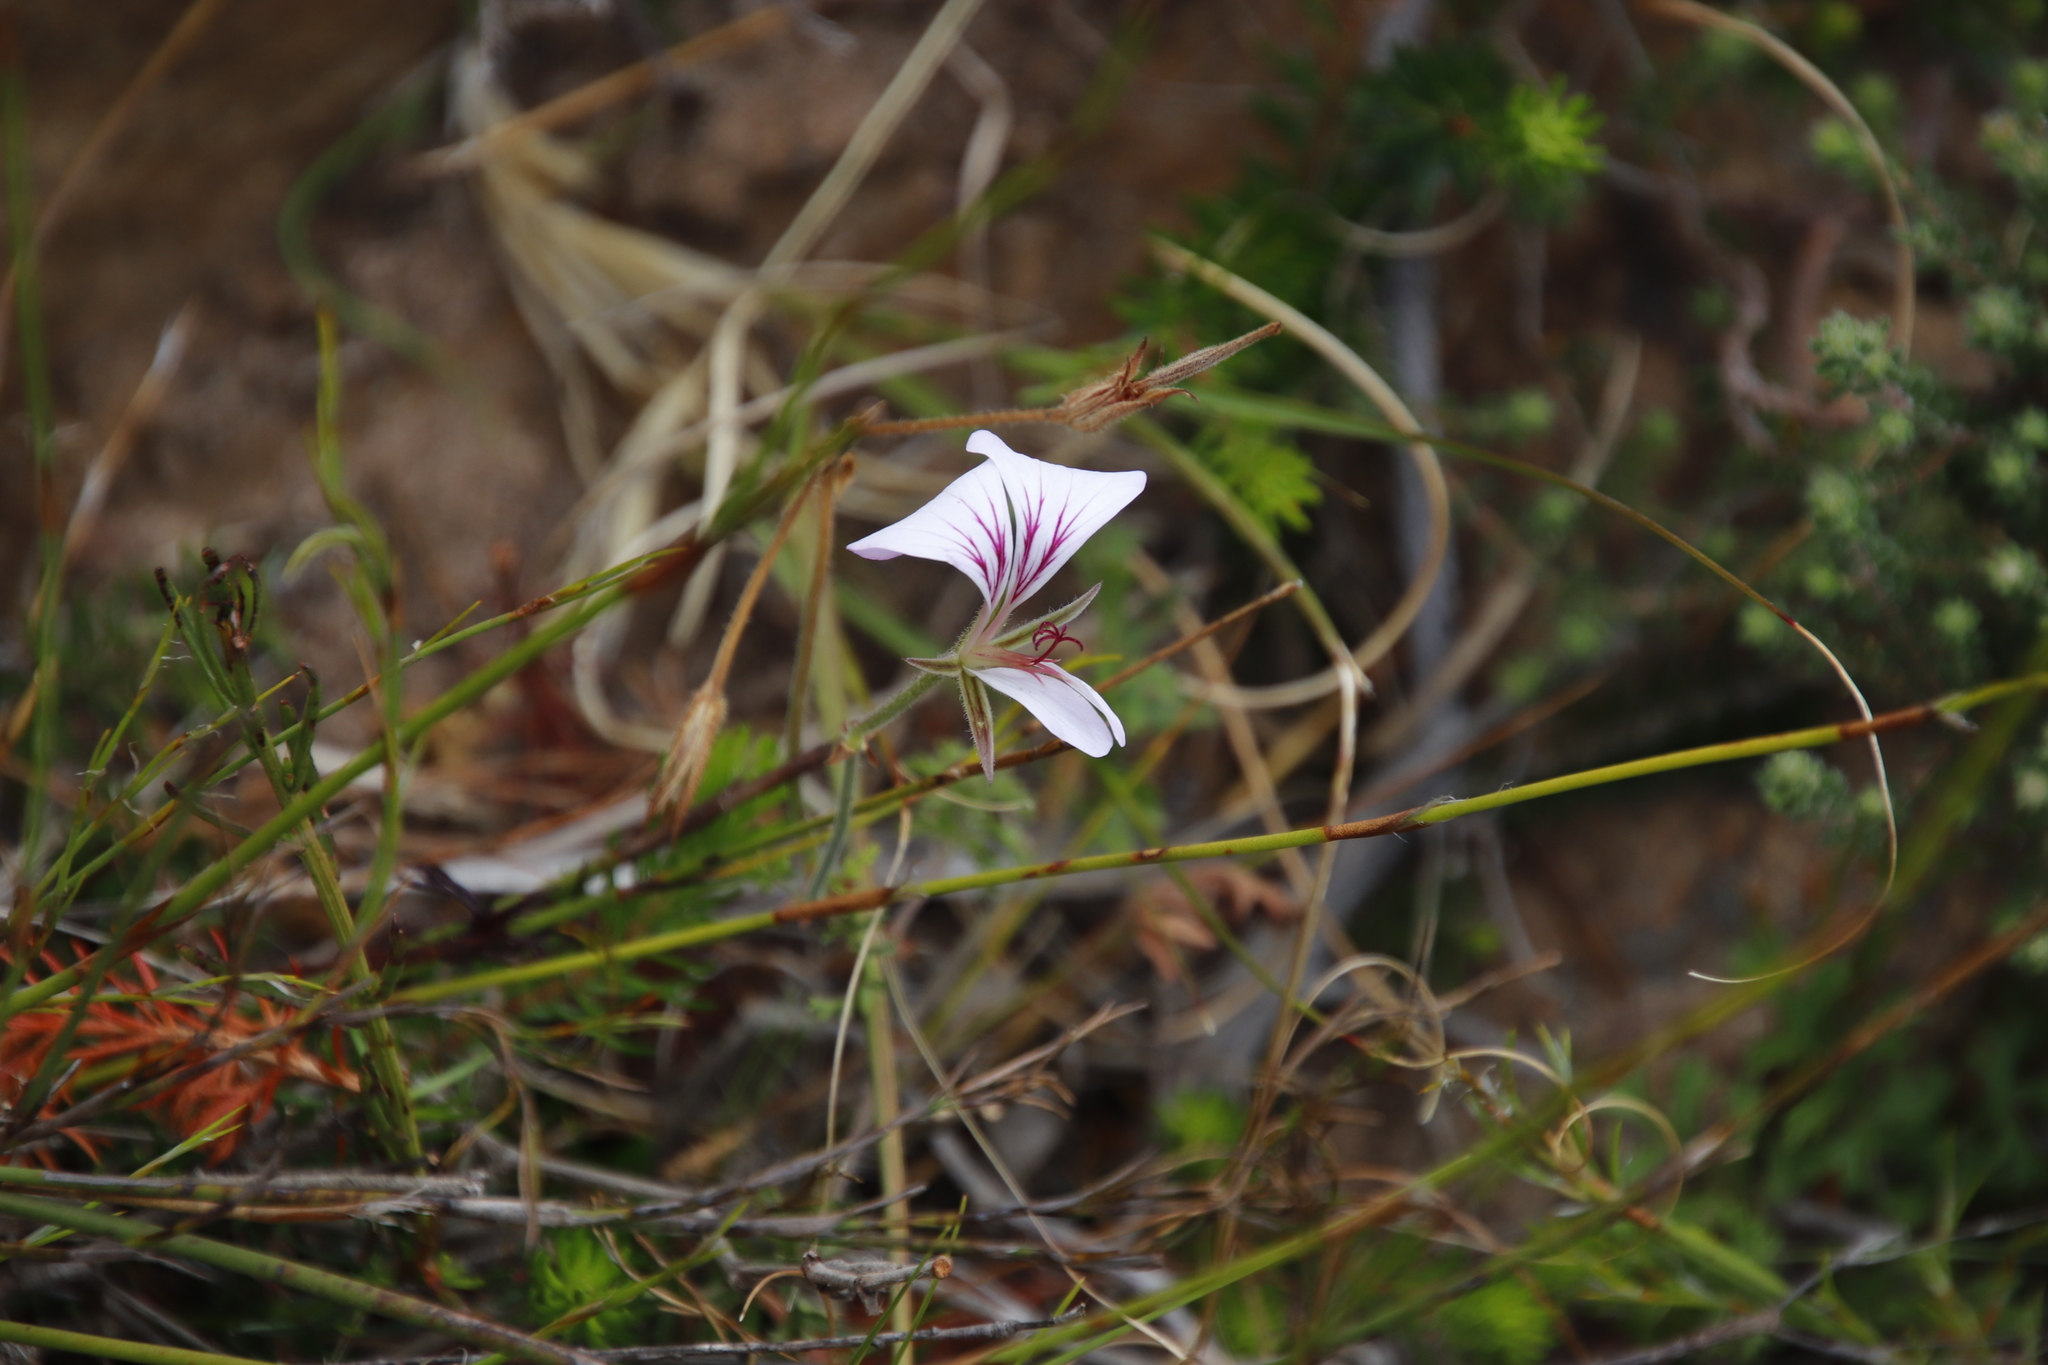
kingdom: Plantae
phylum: Tracheophyta
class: Magnoliopsida
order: Geraniales
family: Geraniaceae
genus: Pelargonium
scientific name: Pelargonium myrrhifolium
